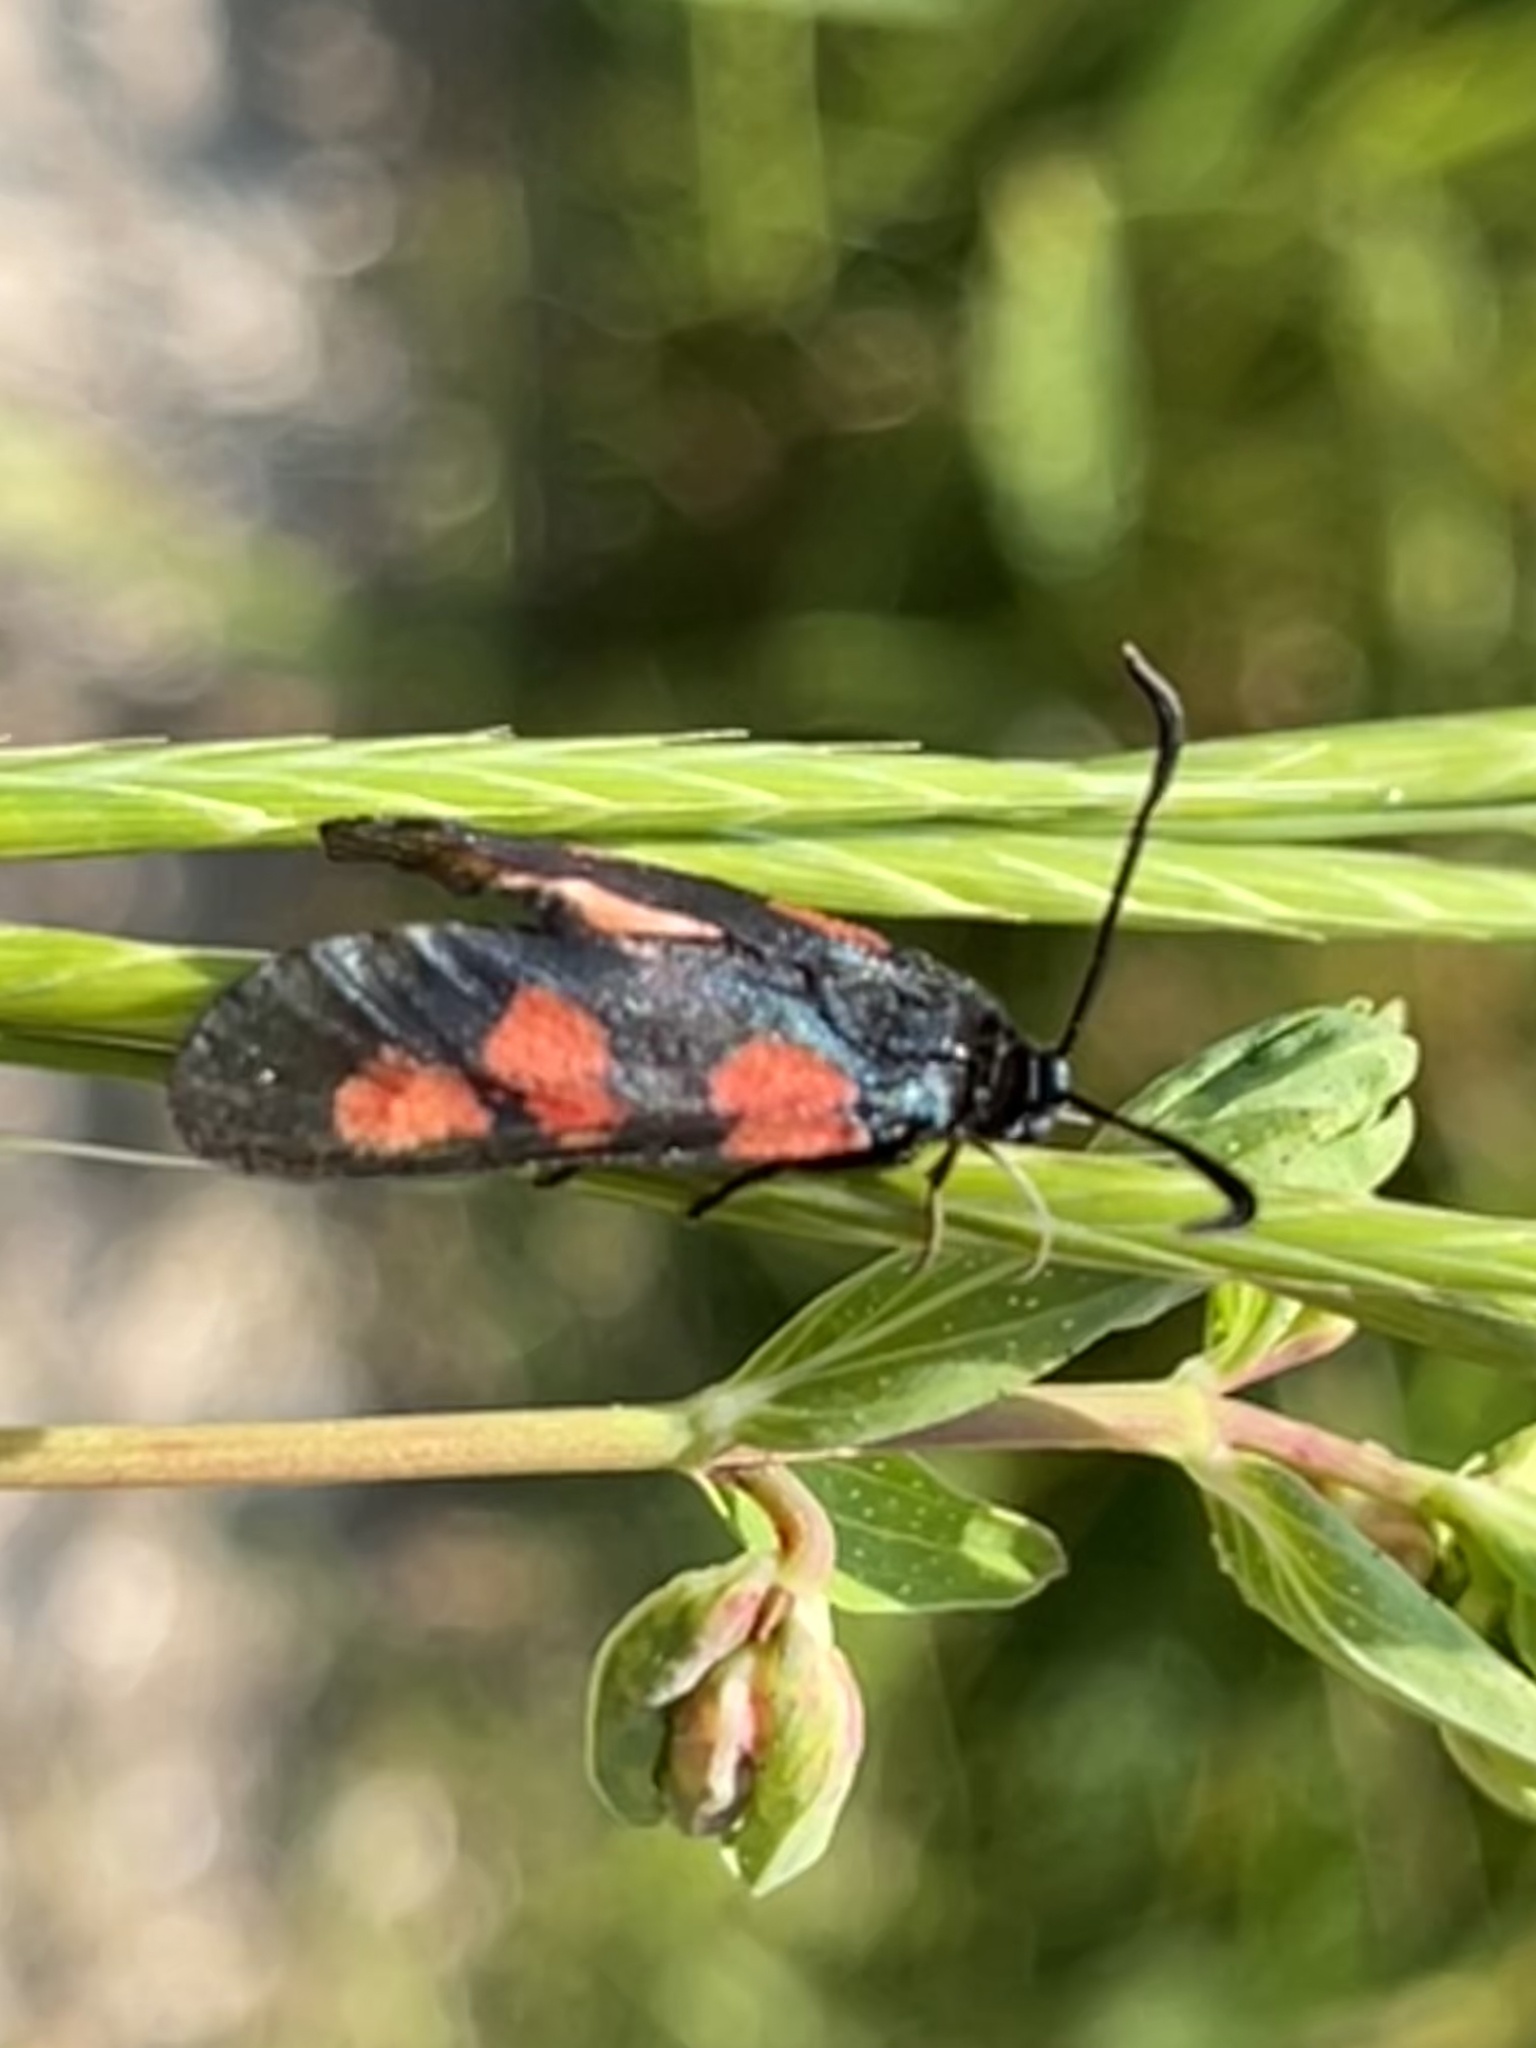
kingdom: Animalia
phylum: Arthropoda
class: Insecta
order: Lepidoptera
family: Zygaenidae
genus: Zygaena
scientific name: Zygaena trifolii
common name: Five-spot burnet
